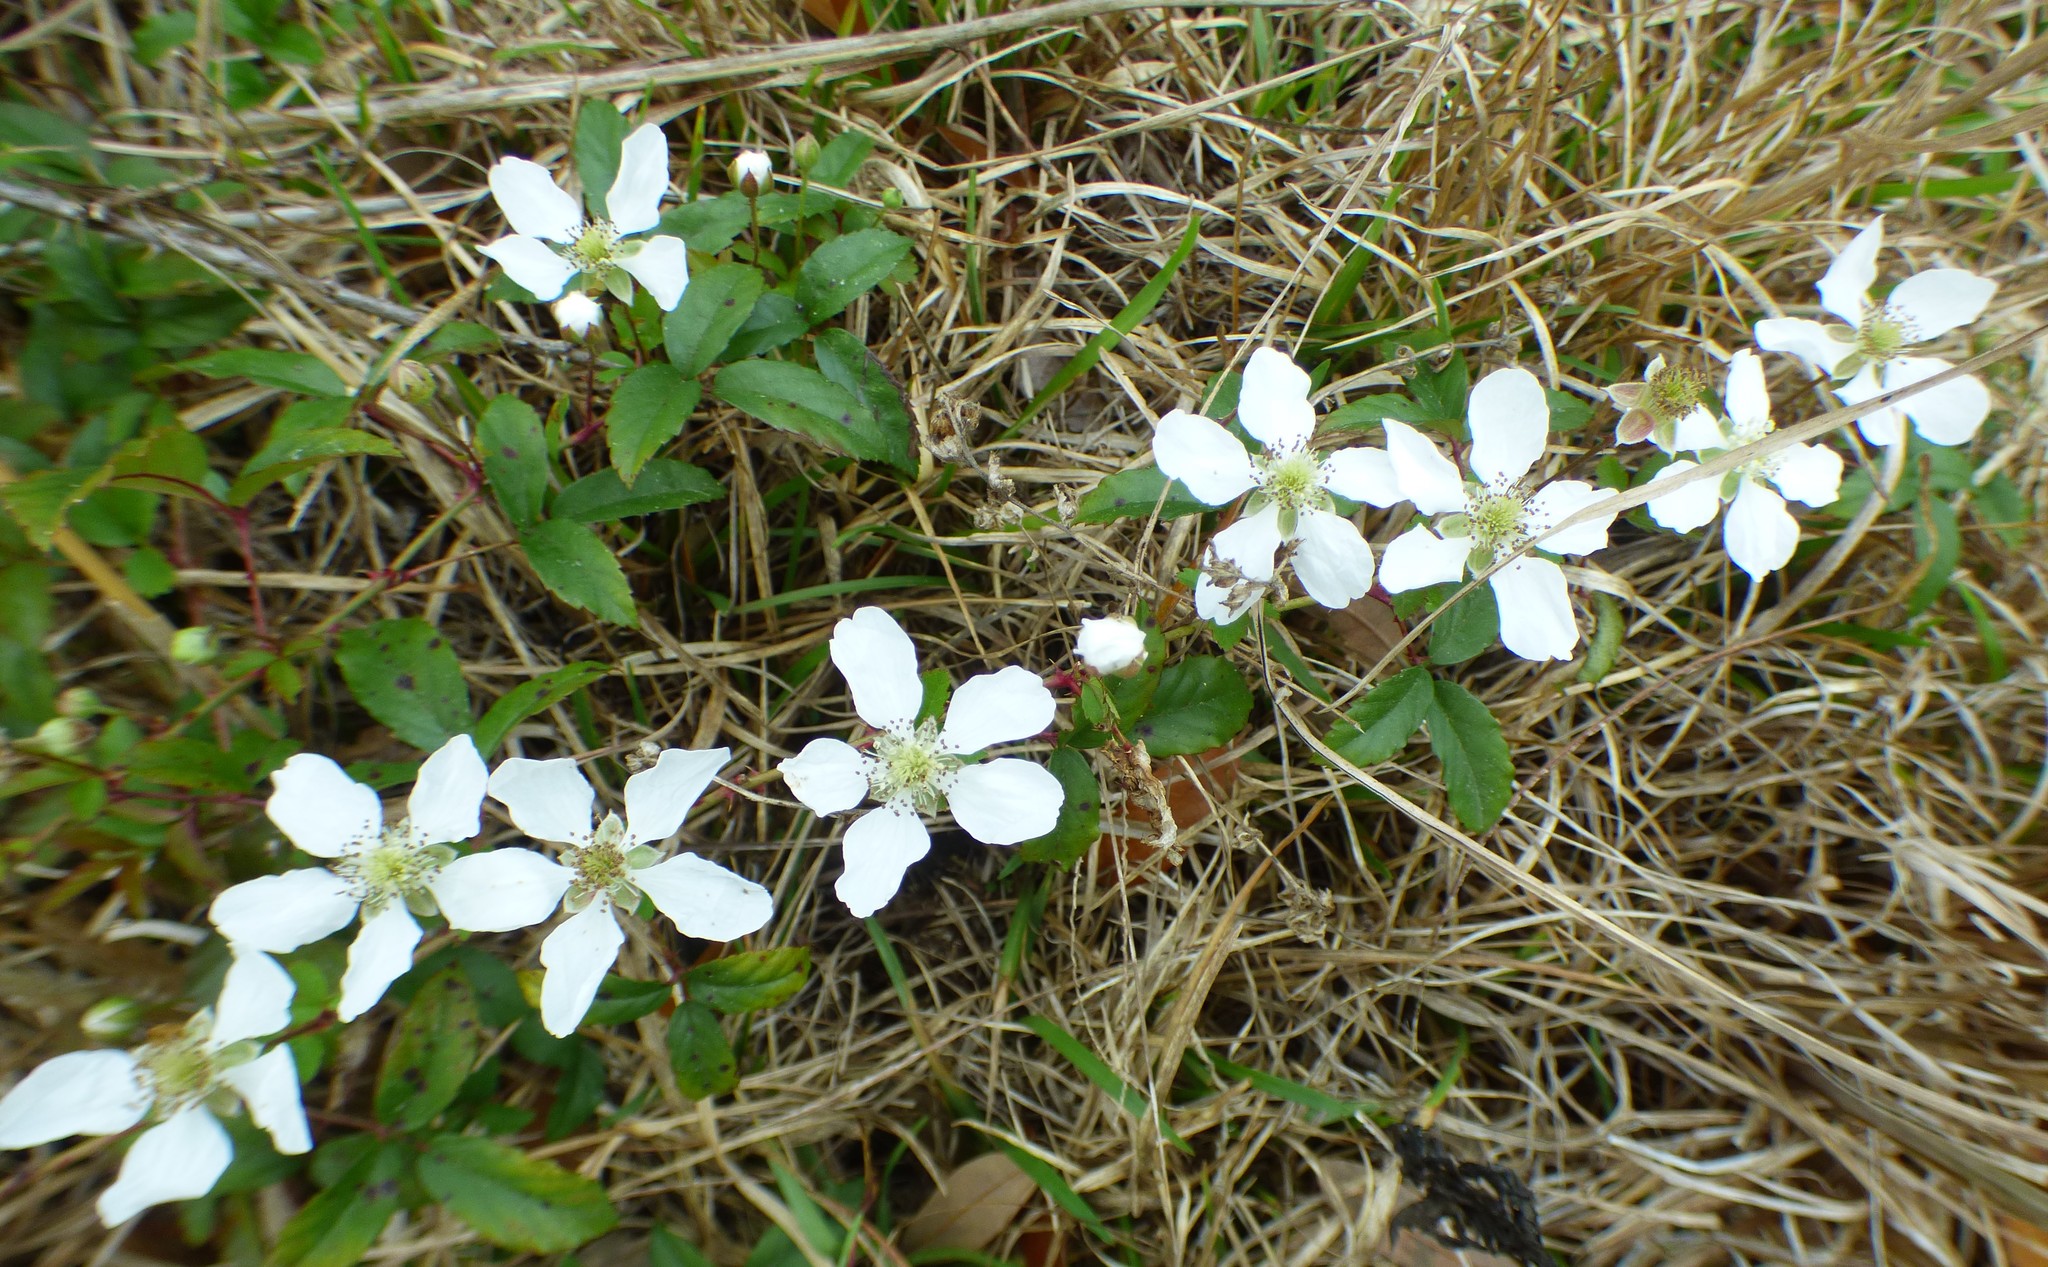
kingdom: Plantae
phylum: Tracheophyta
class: Magnoliopsida
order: Rosales
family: Rosaceae
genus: Rubus
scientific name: Rubus trivialis
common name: Southern dewberry
